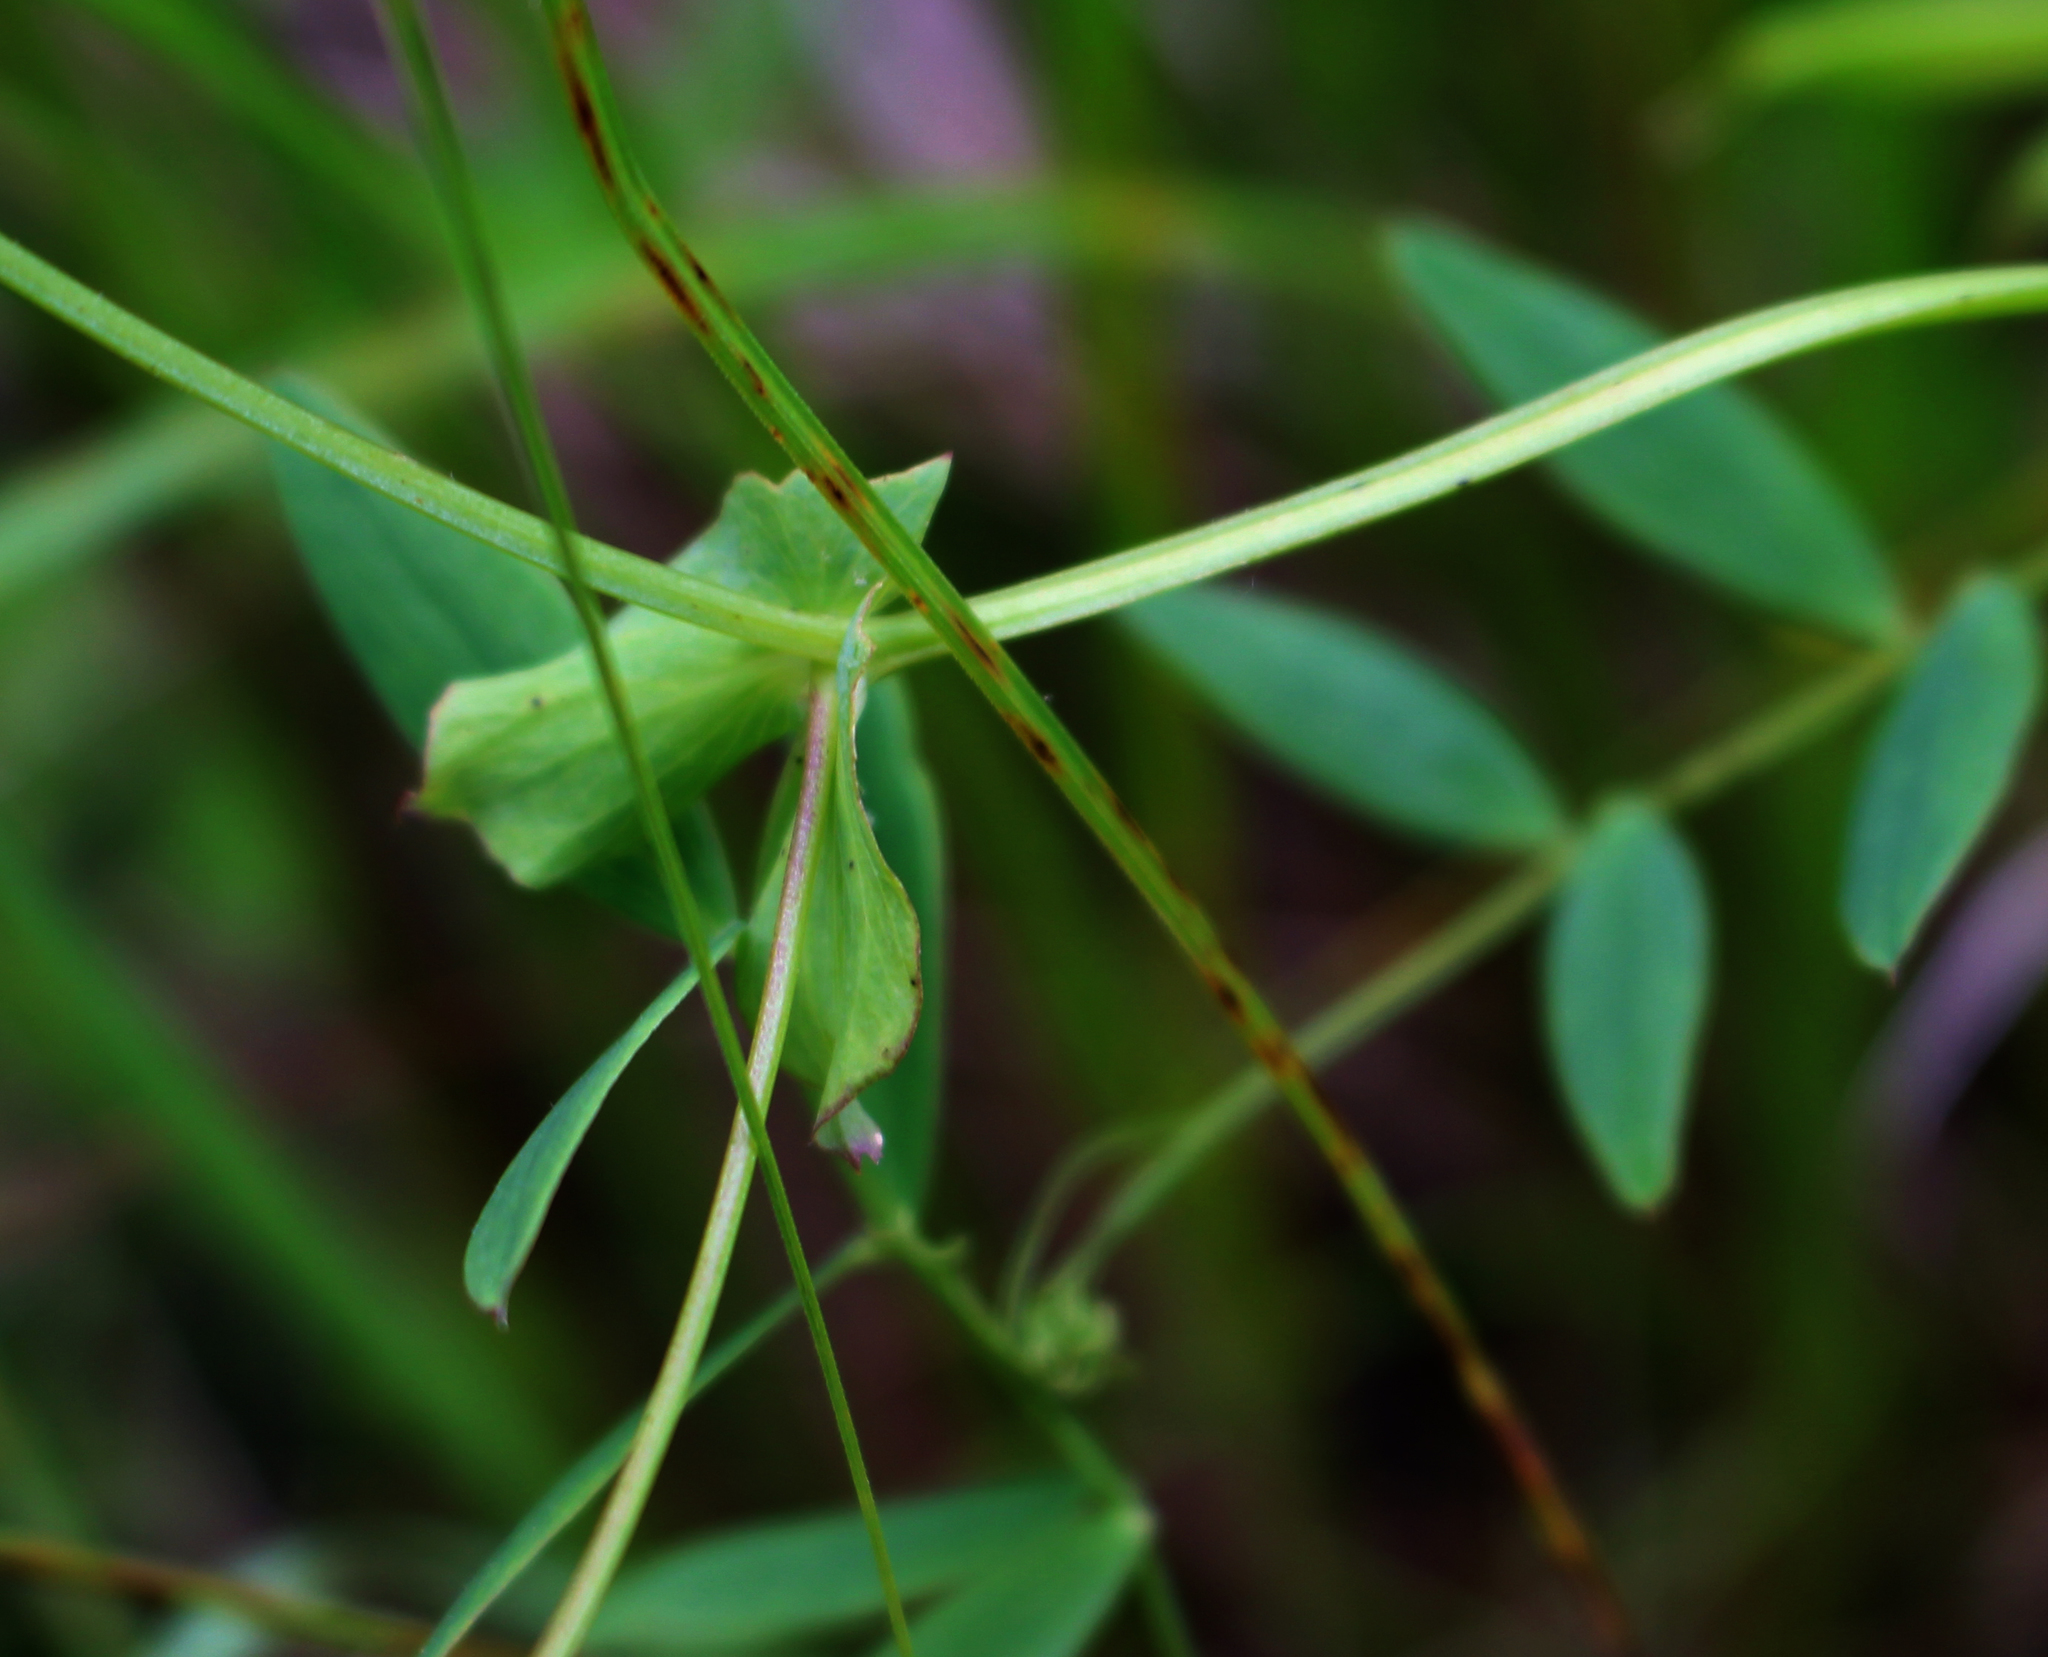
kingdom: Plantae
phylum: Tracheophyta
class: Magnoliopsida
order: Fabales
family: Fabaceae
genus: Lathyrus
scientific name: Lathyrus palustris
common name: Marsh pea
